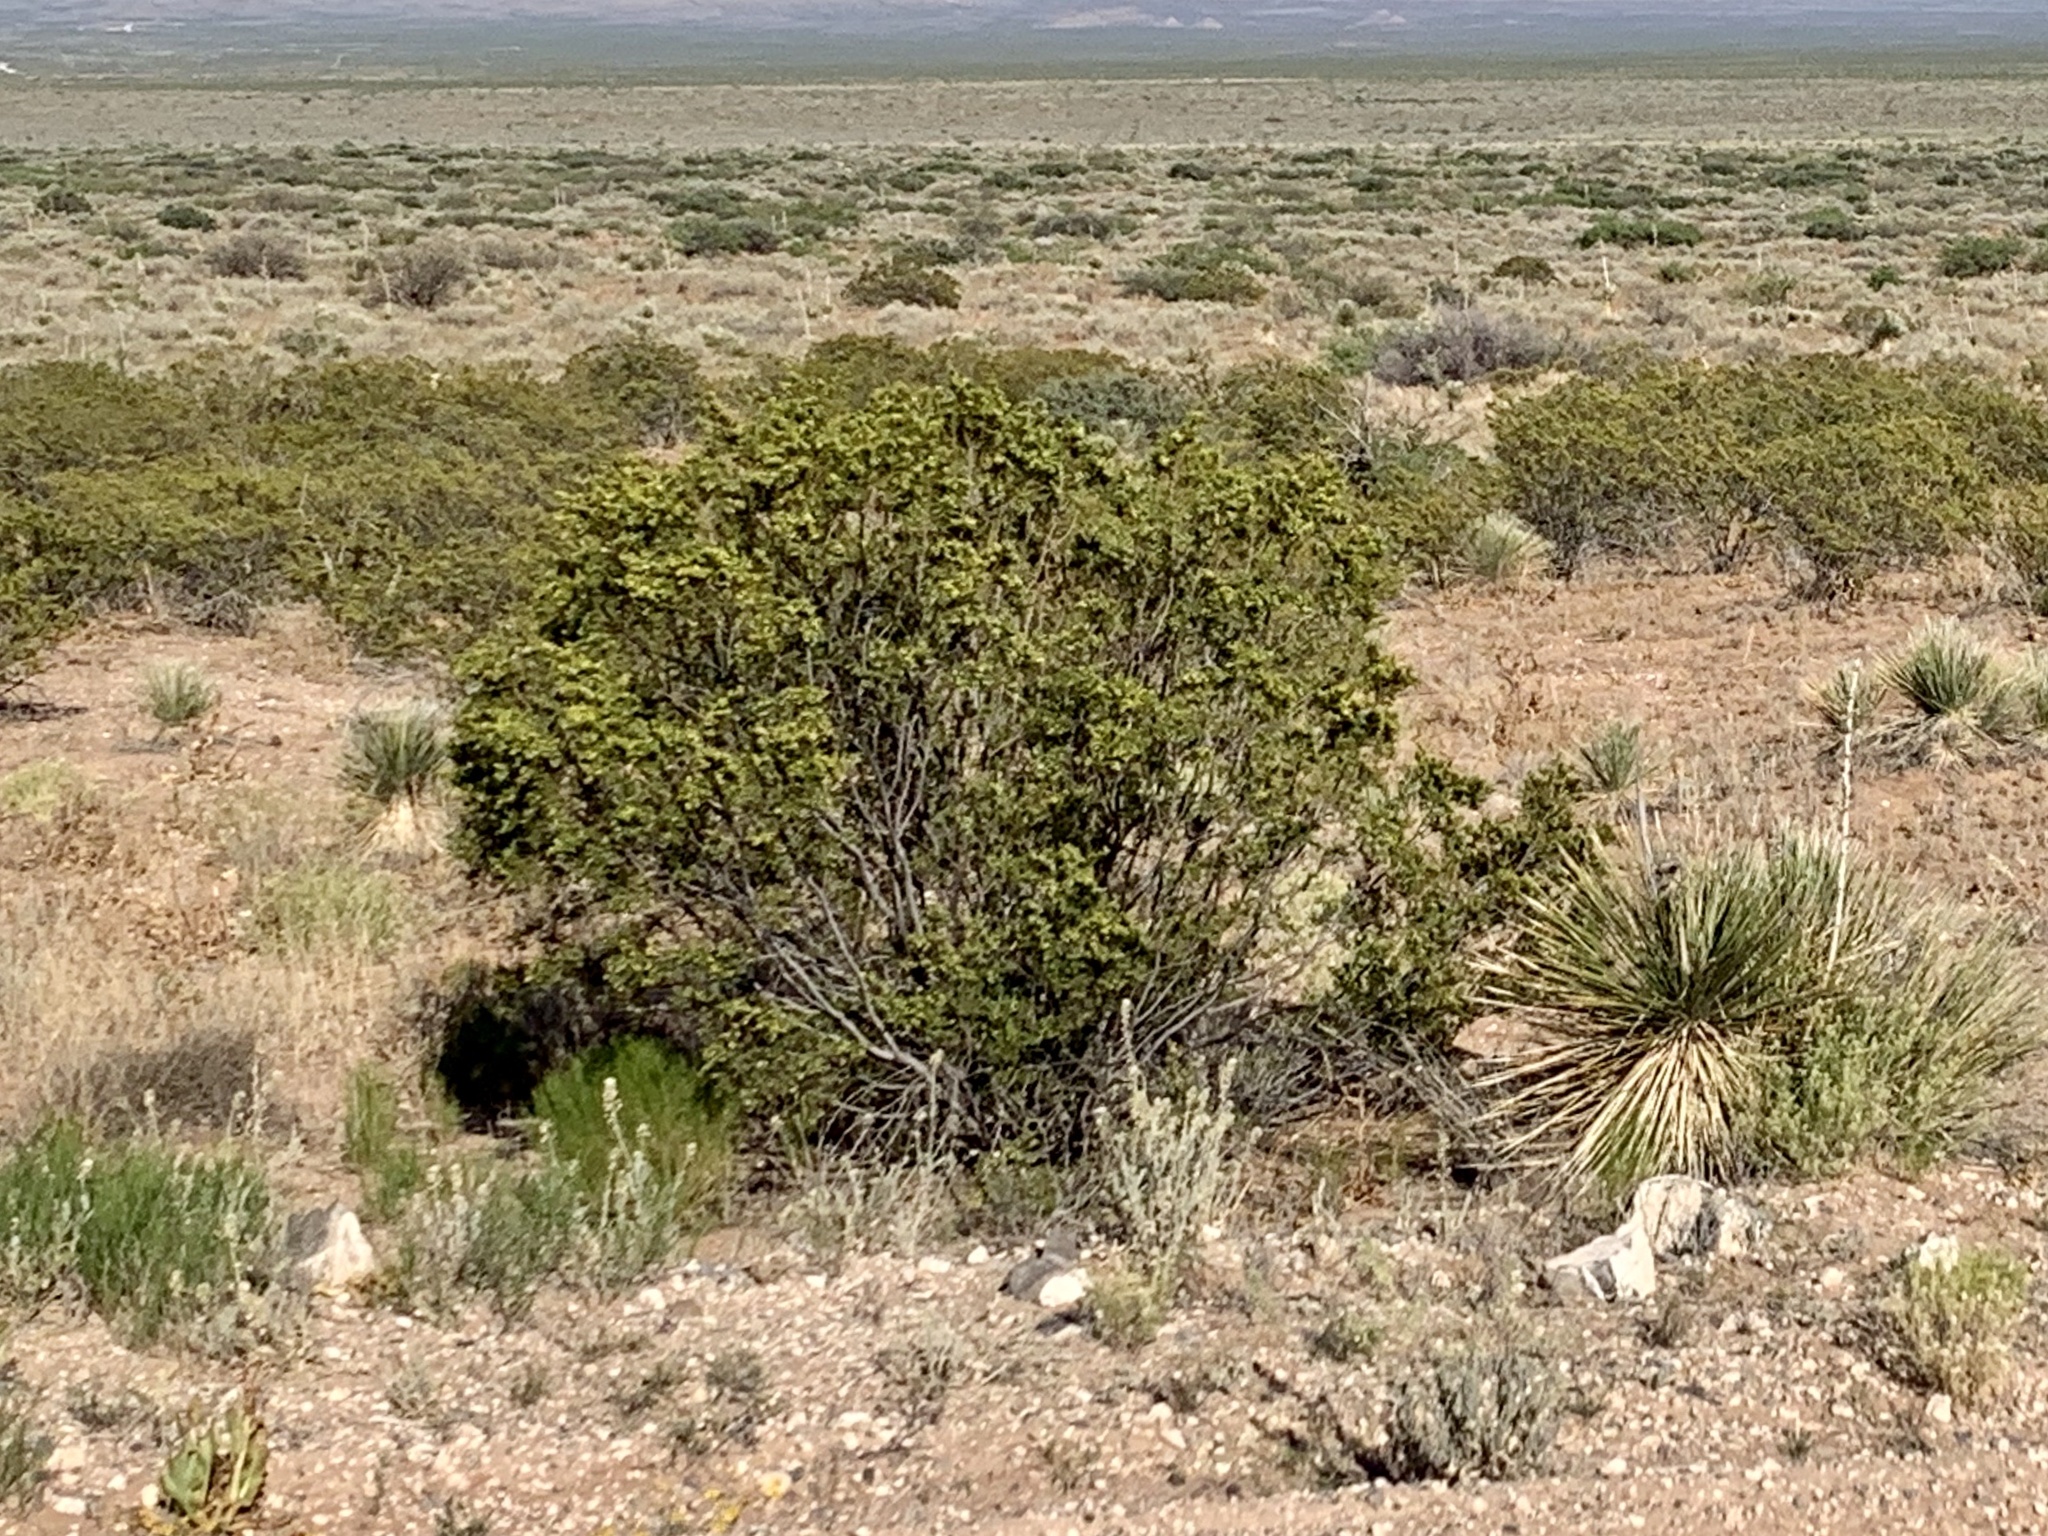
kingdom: Plantae
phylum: Tracheophyta
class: Magnoliopsida
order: Zygophyllales
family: Zygophyllaceae
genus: Larrea
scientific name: Larrea tridentata
